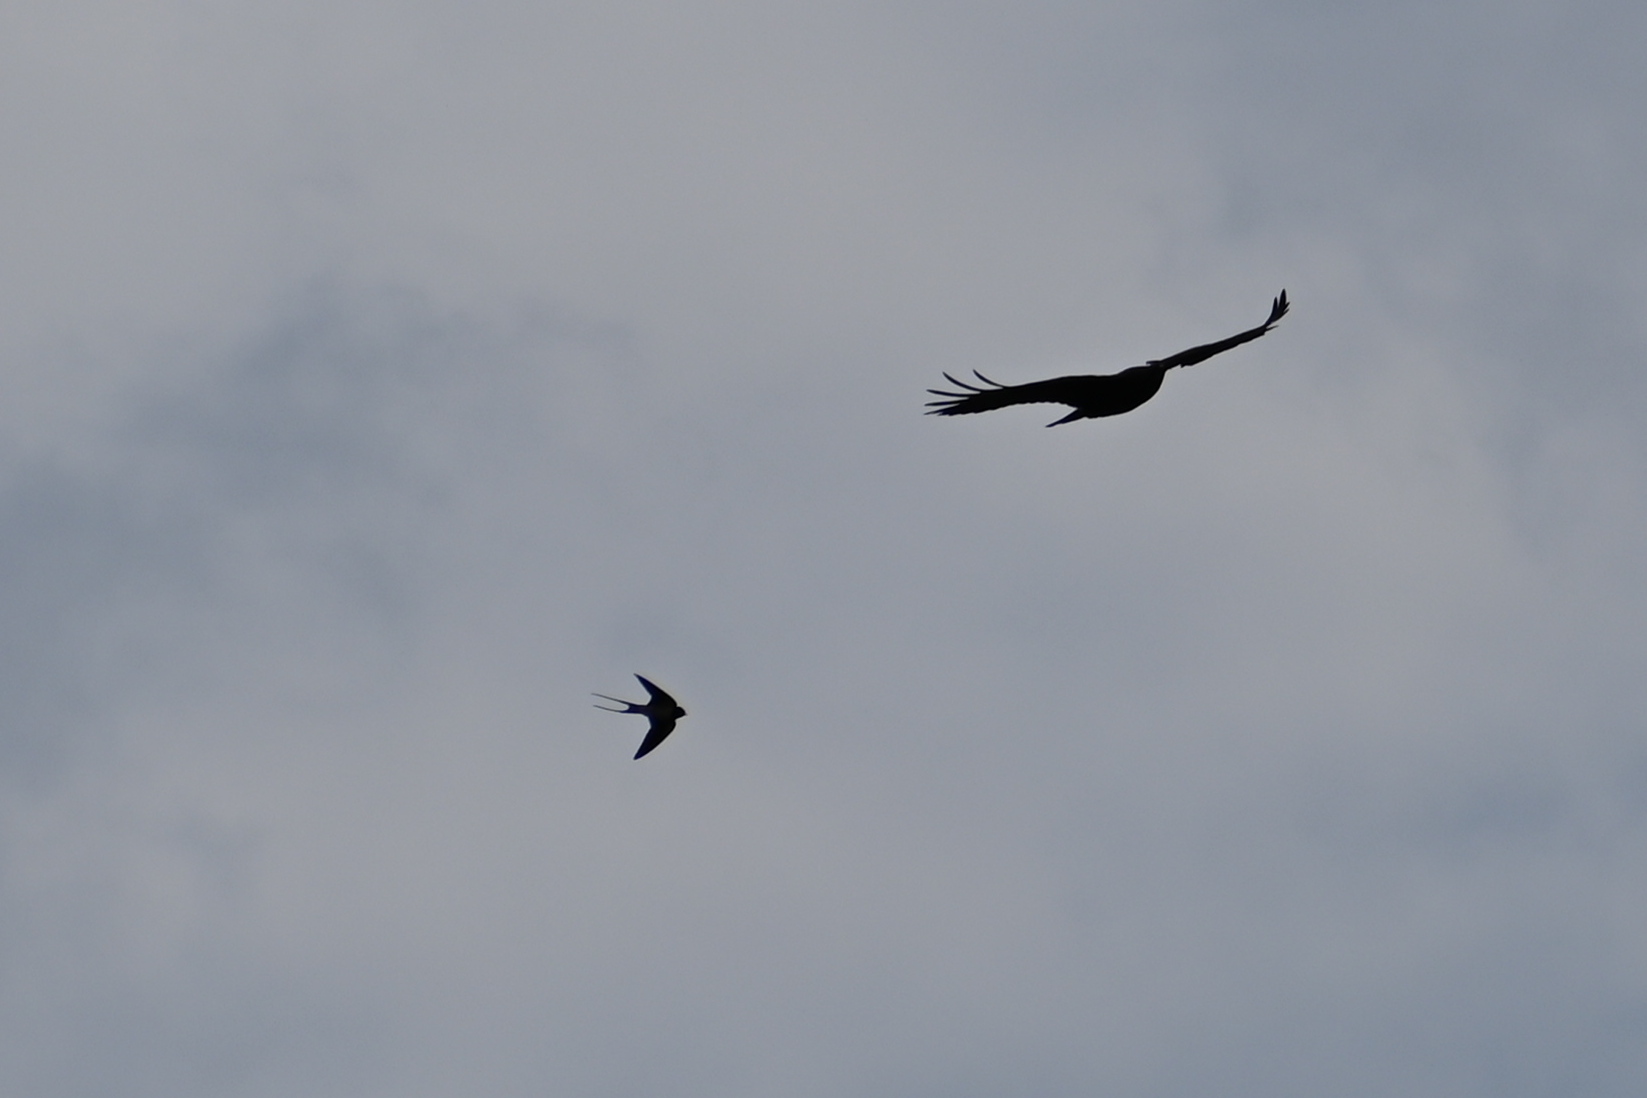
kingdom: Animalia
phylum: Chordata
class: Aves
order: Passeriformes
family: Hirundinidae
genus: Hirundo
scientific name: Hirundo rustica
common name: Barn swallow
